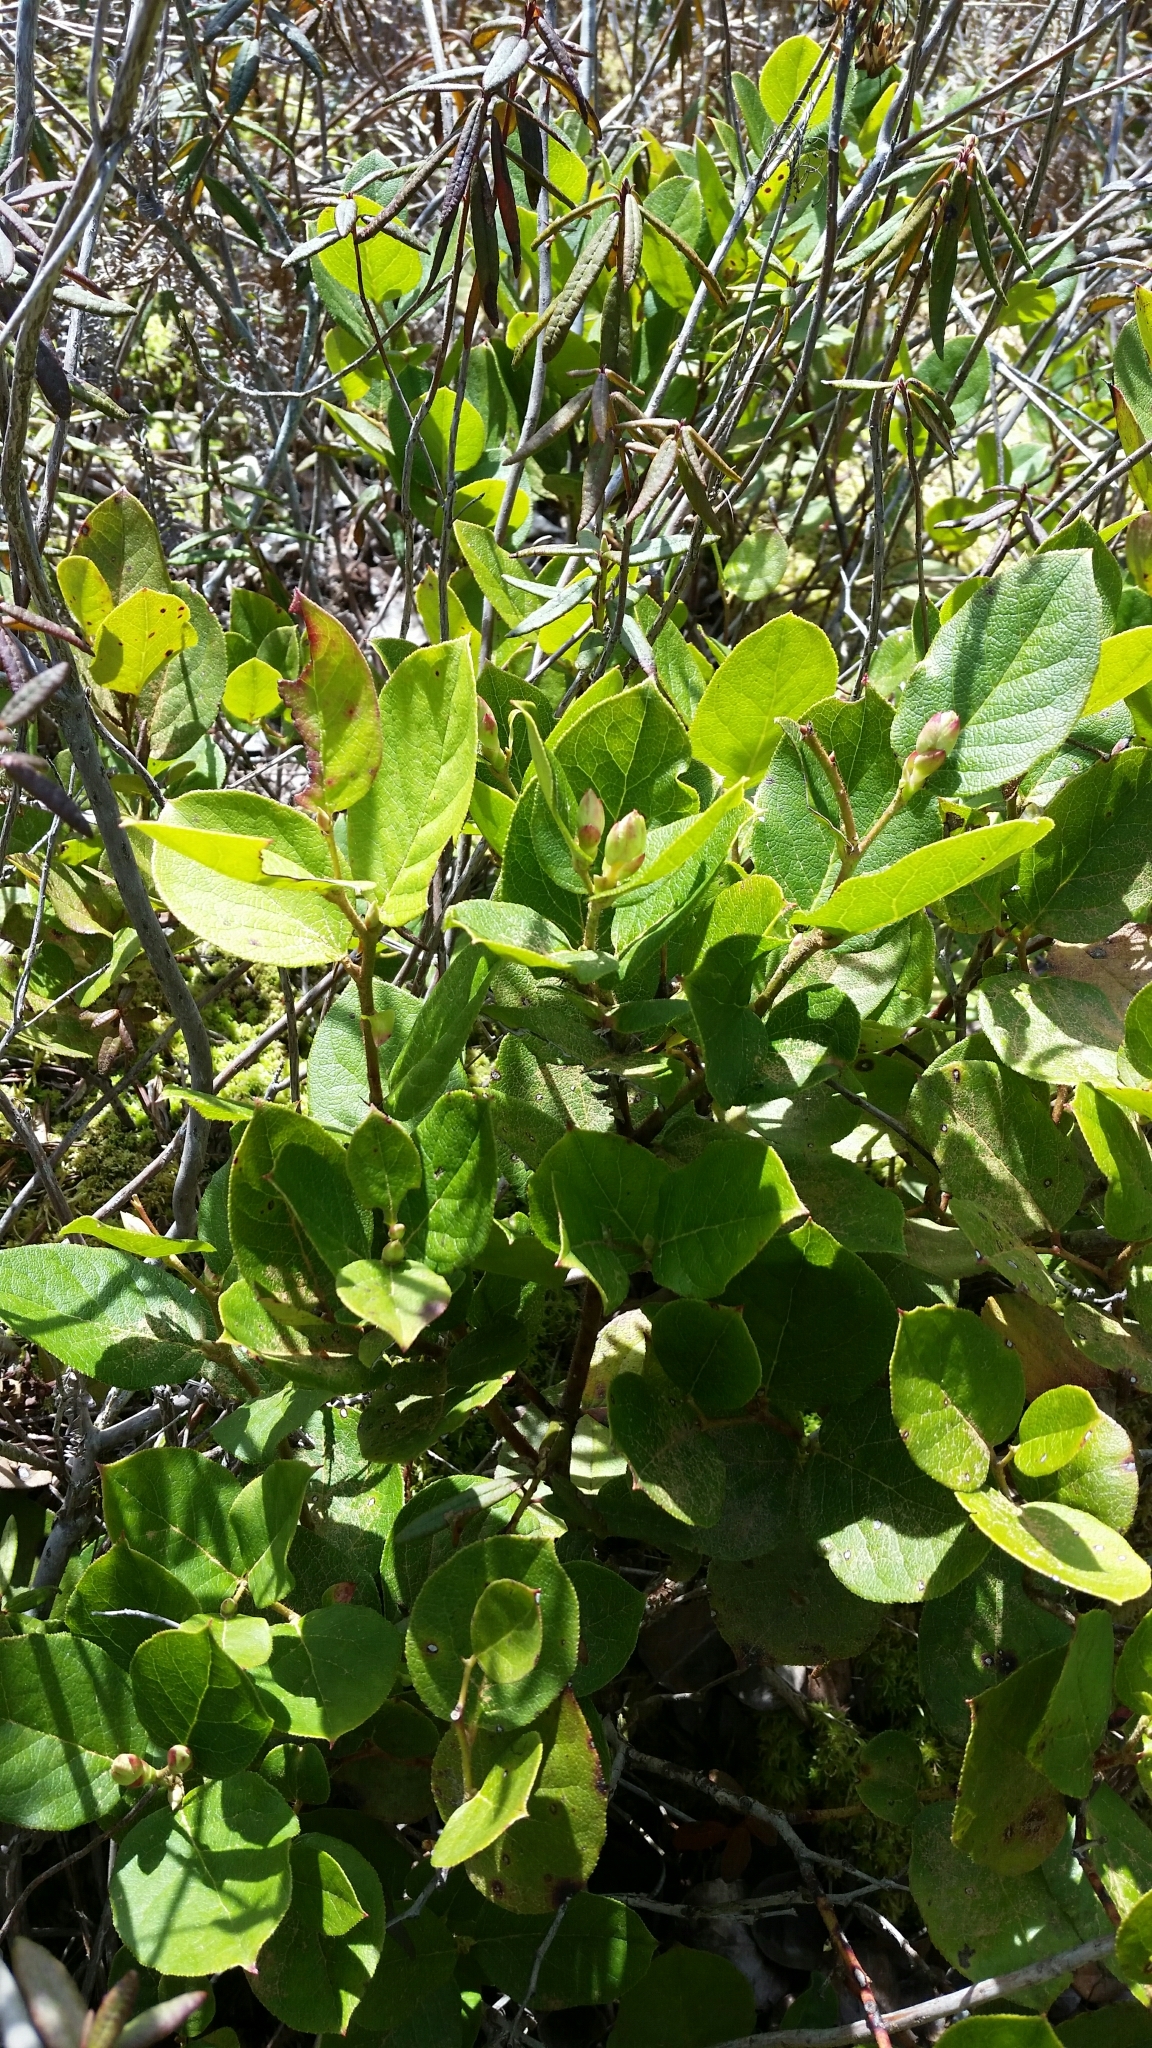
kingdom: Plantae
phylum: Tracheophyta
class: Magnoliopsida
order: Ericales
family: Ericaceae
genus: Gaultheria
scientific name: Gaultheria shallon
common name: Shallon
